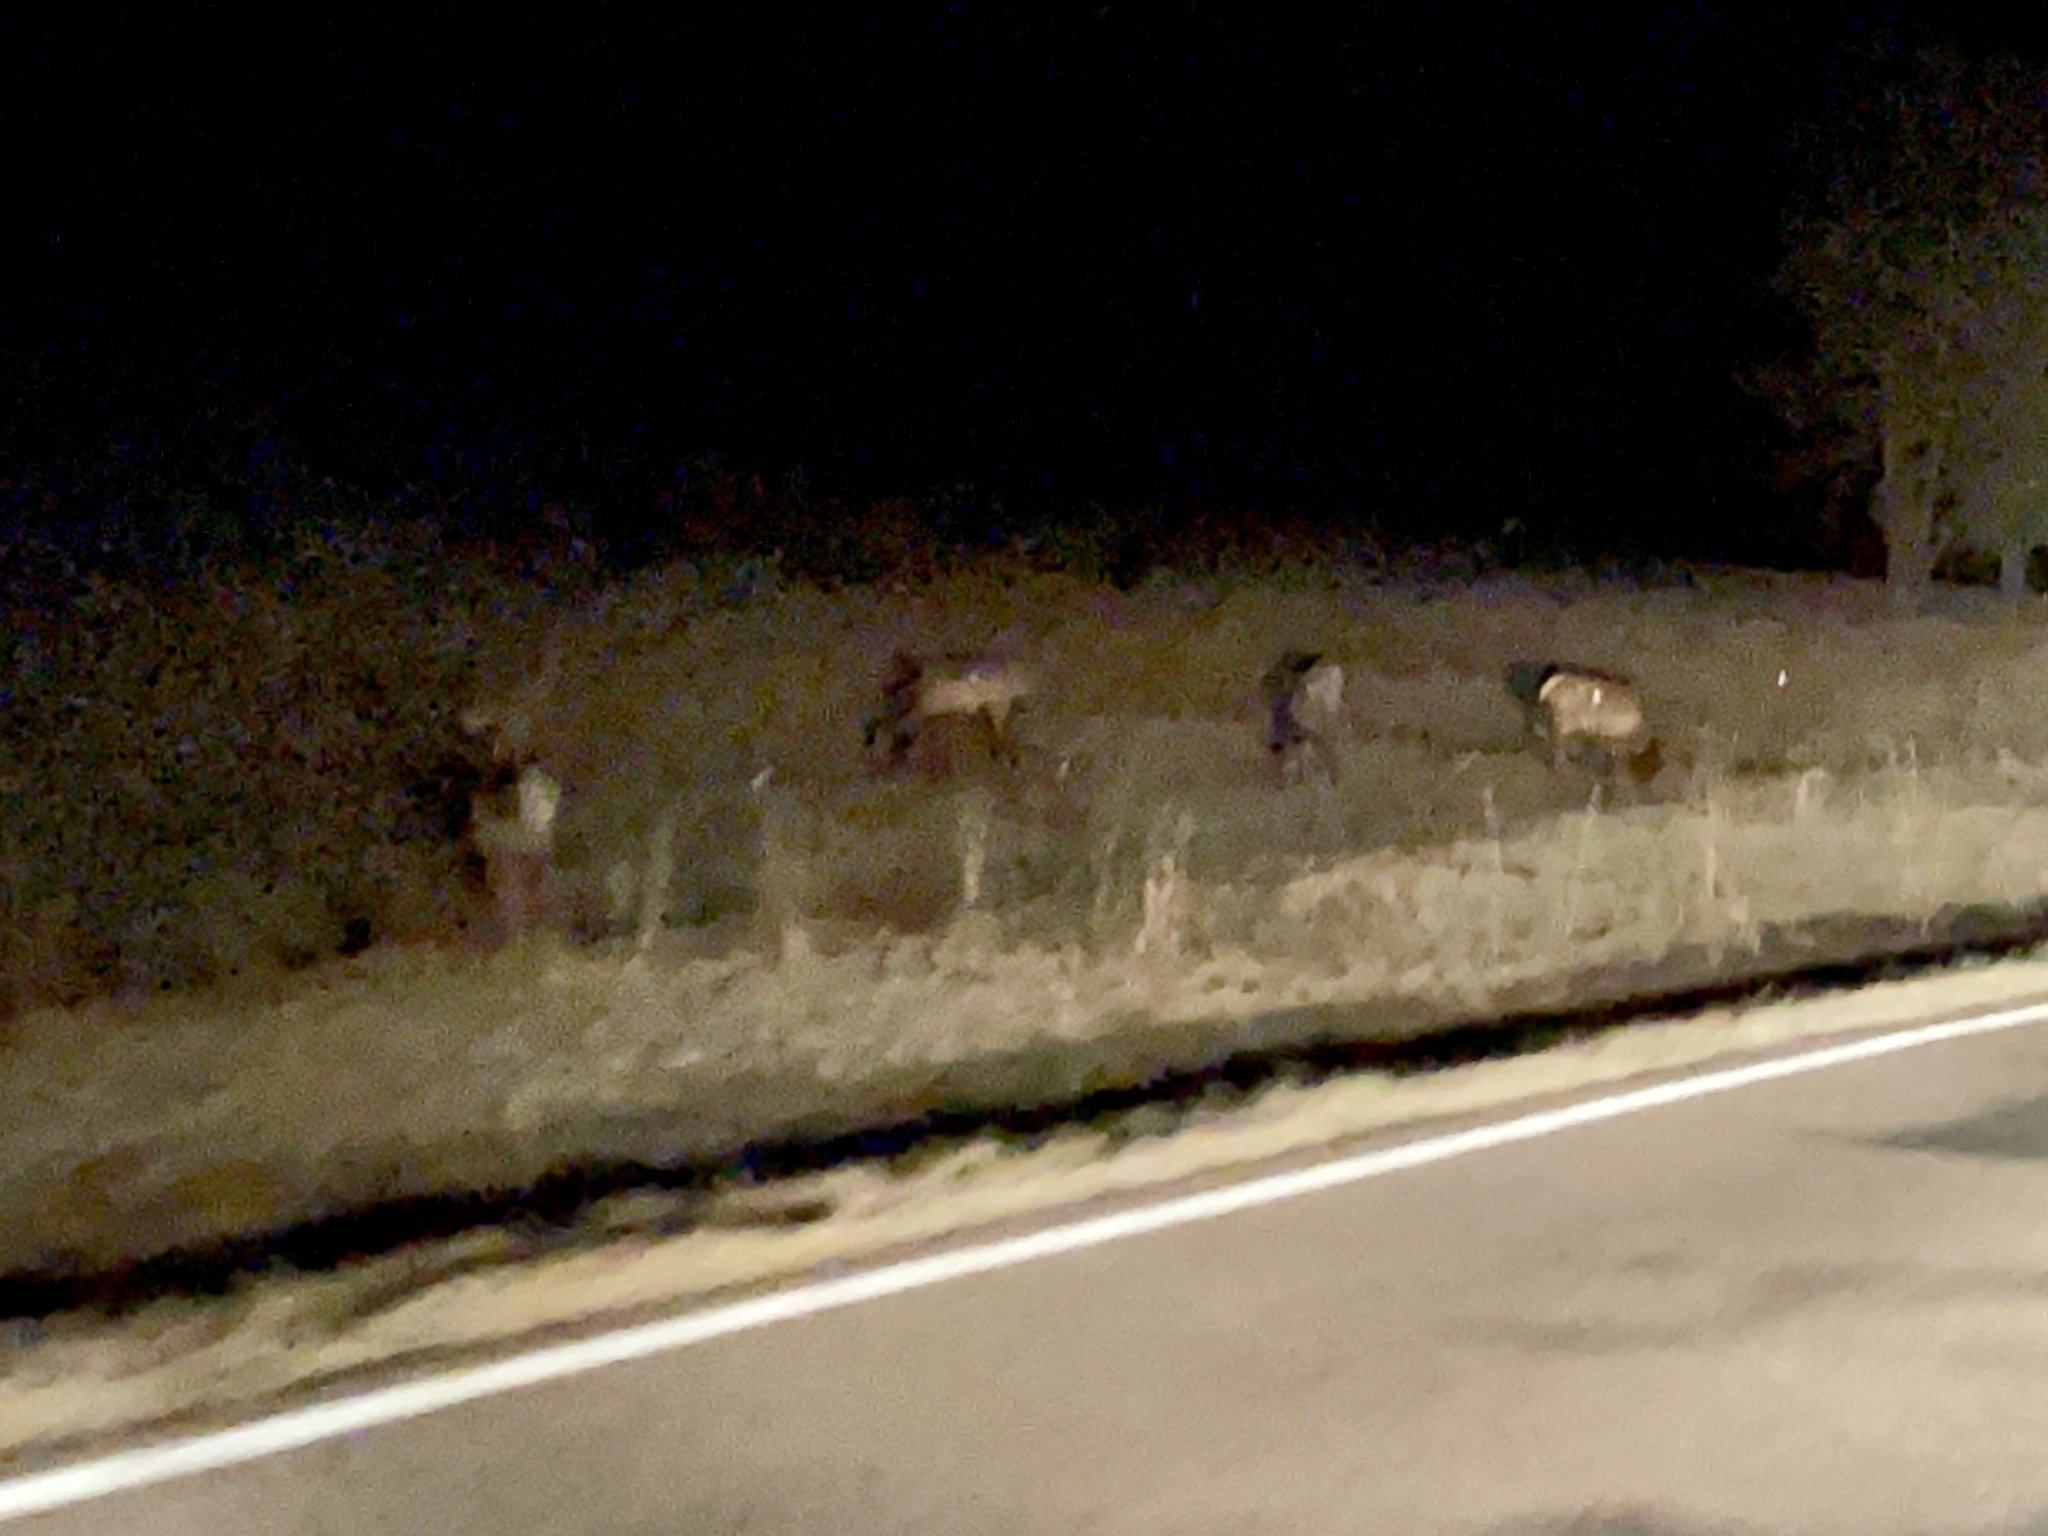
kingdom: Animalia
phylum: Chordata
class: Mammalia
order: Artiodactyla
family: Cervidae
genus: Cervus
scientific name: Cervus elaphus
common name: Red deer
